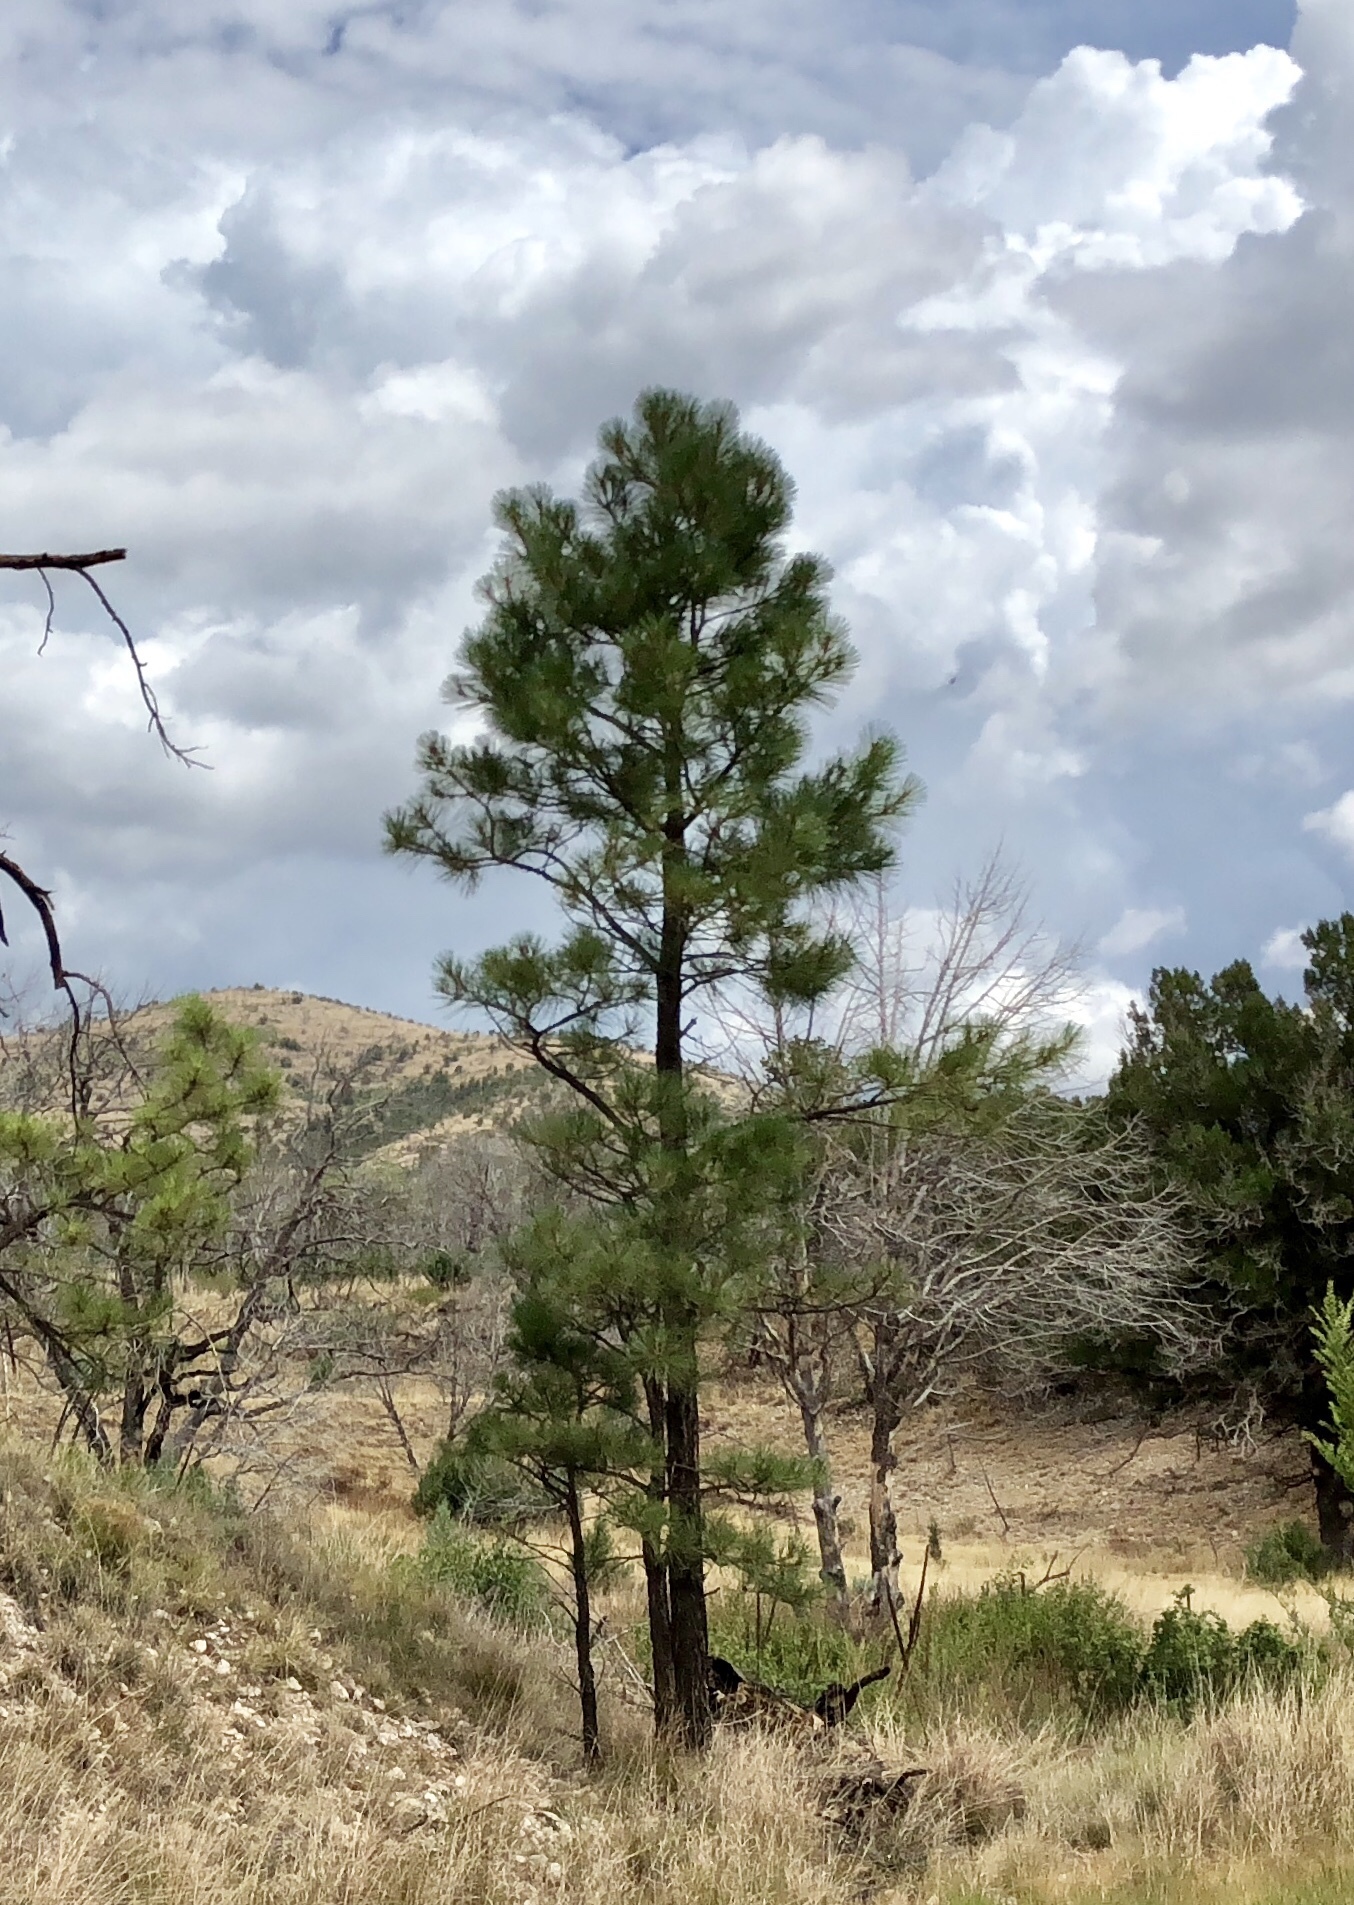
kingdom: Plantae
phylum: Tracheophyta
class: Pinopsida
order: Pinales
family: Pinaceae
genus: Pinus
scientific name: Pinus ponderosa
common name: Western yellow-pine
